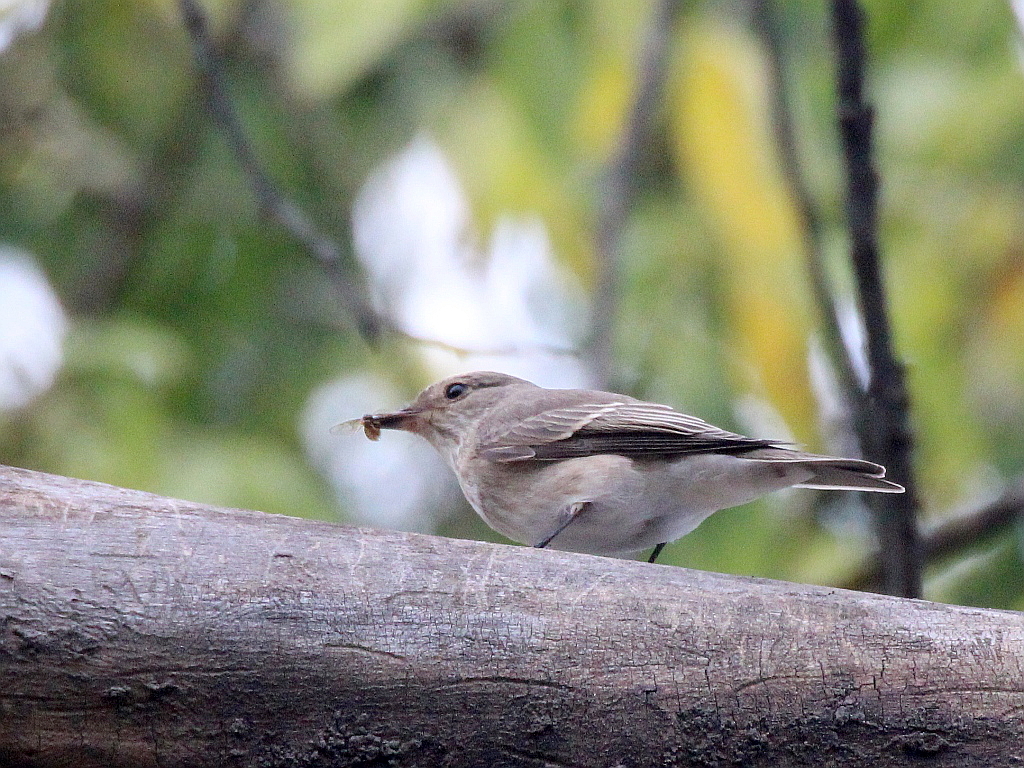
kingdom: Animalia
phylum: Chordata
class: Aves
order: Passeriformes
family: Muscicapidae
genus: Muscicapa
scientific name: Muscicapa striata
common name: Spotted flycatcher
